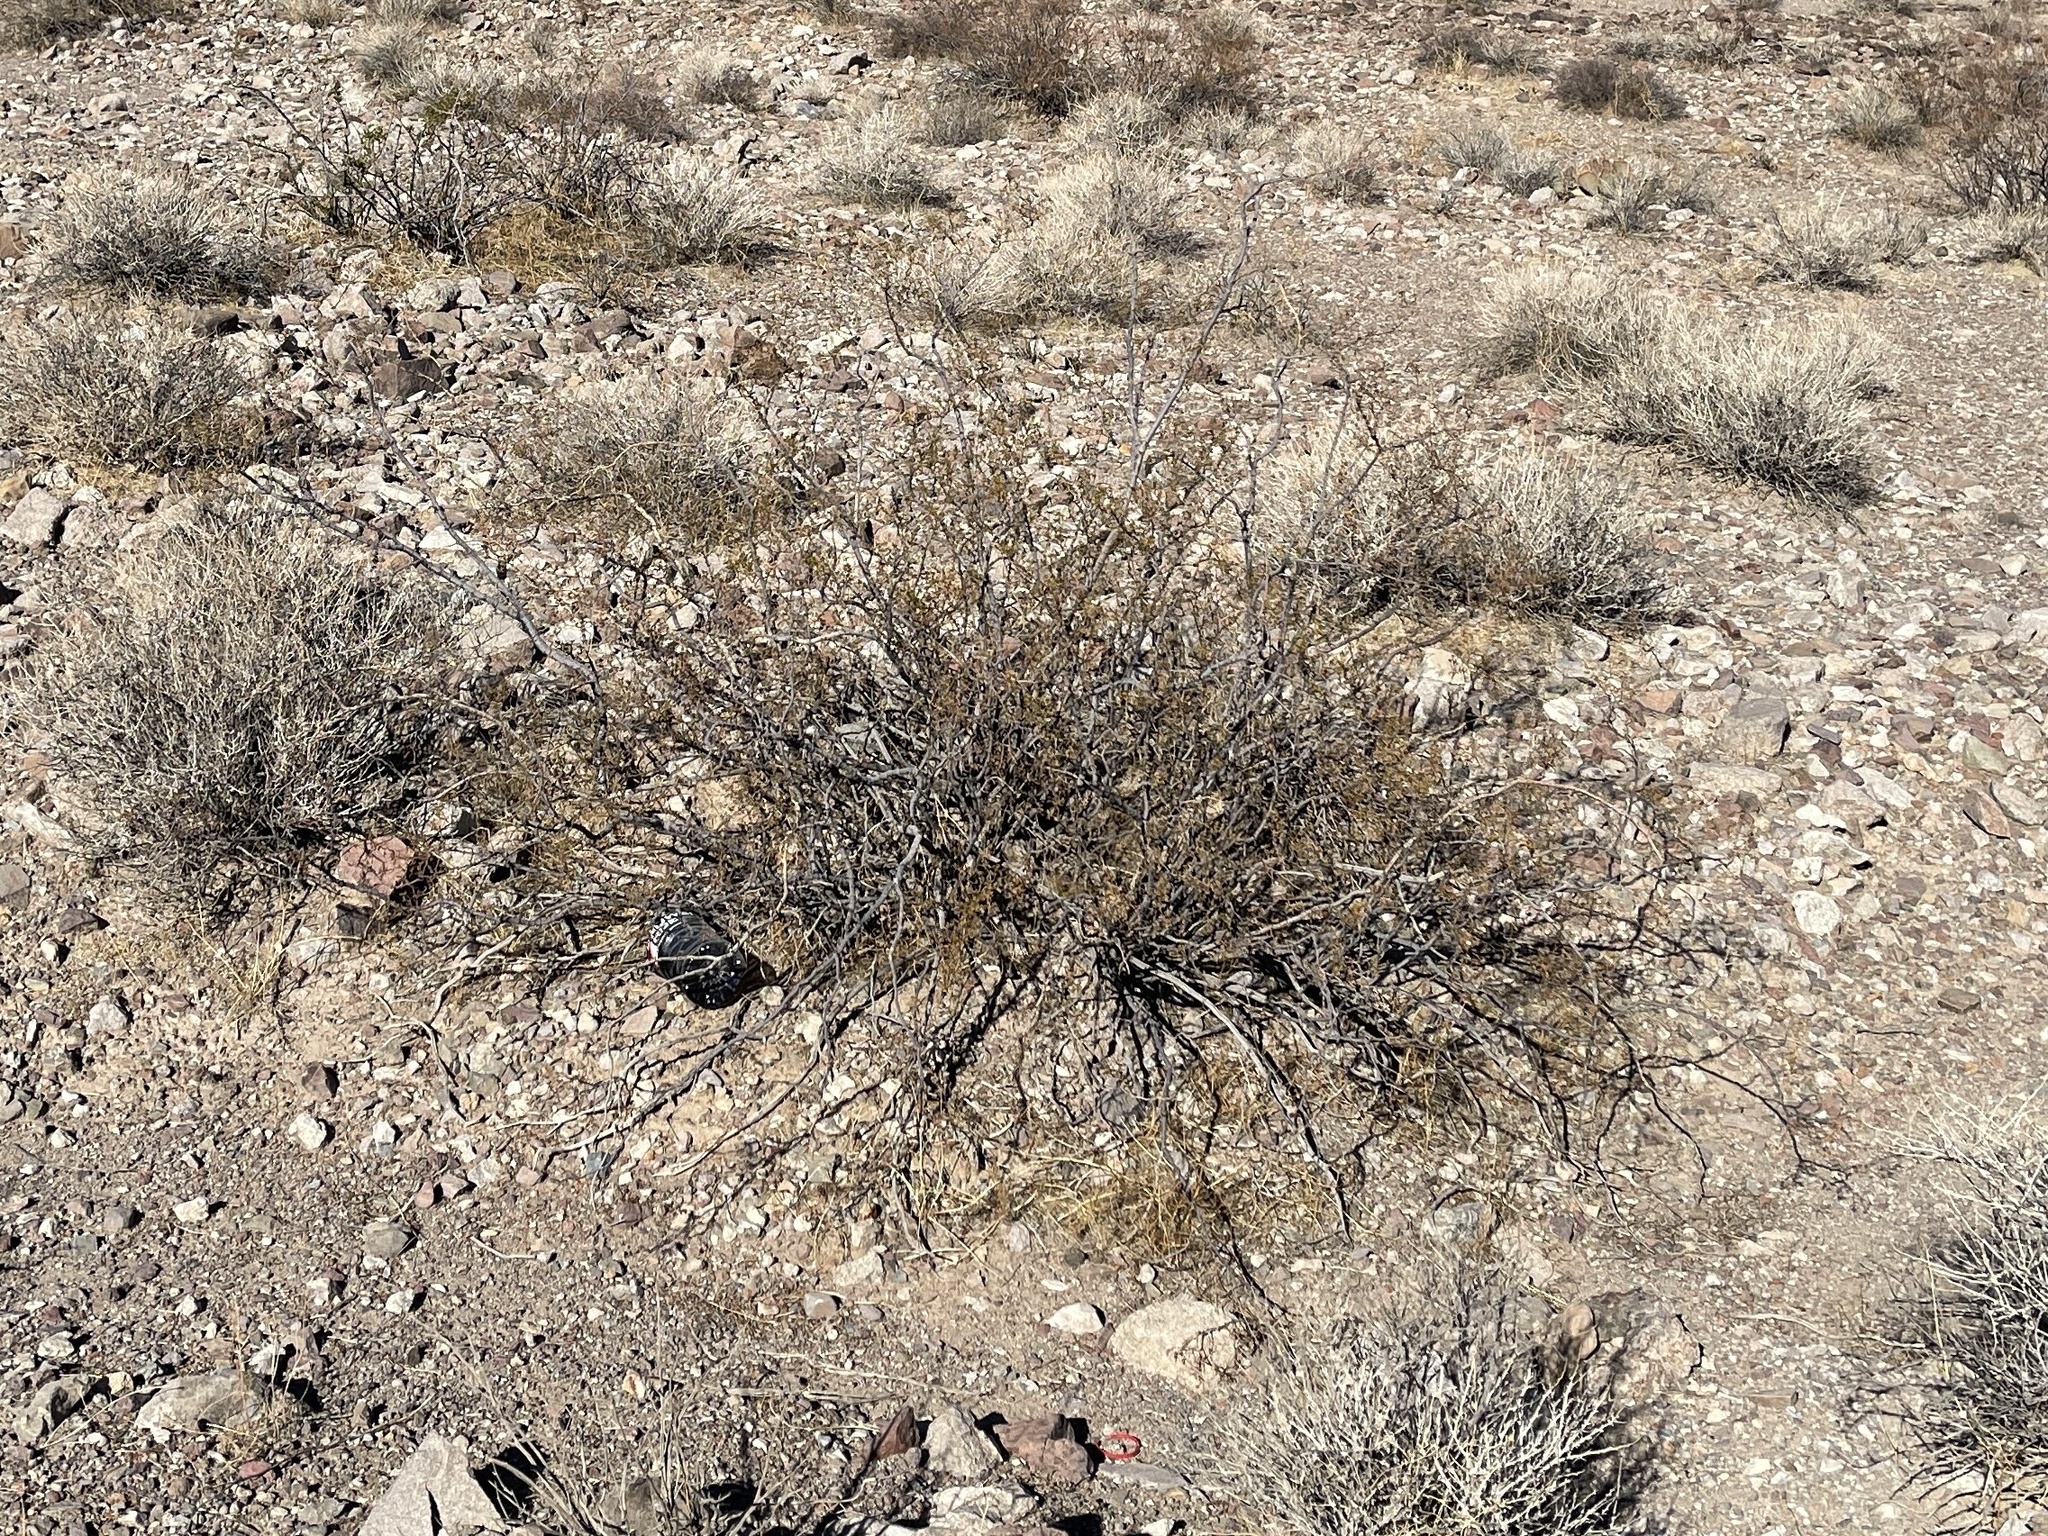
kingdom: Plantae
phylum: Tracheophyta
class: Magnoliopsida
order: Zygophyllales
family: Zygophyllaceae
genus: Larrea
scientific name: Larrea tridentata
